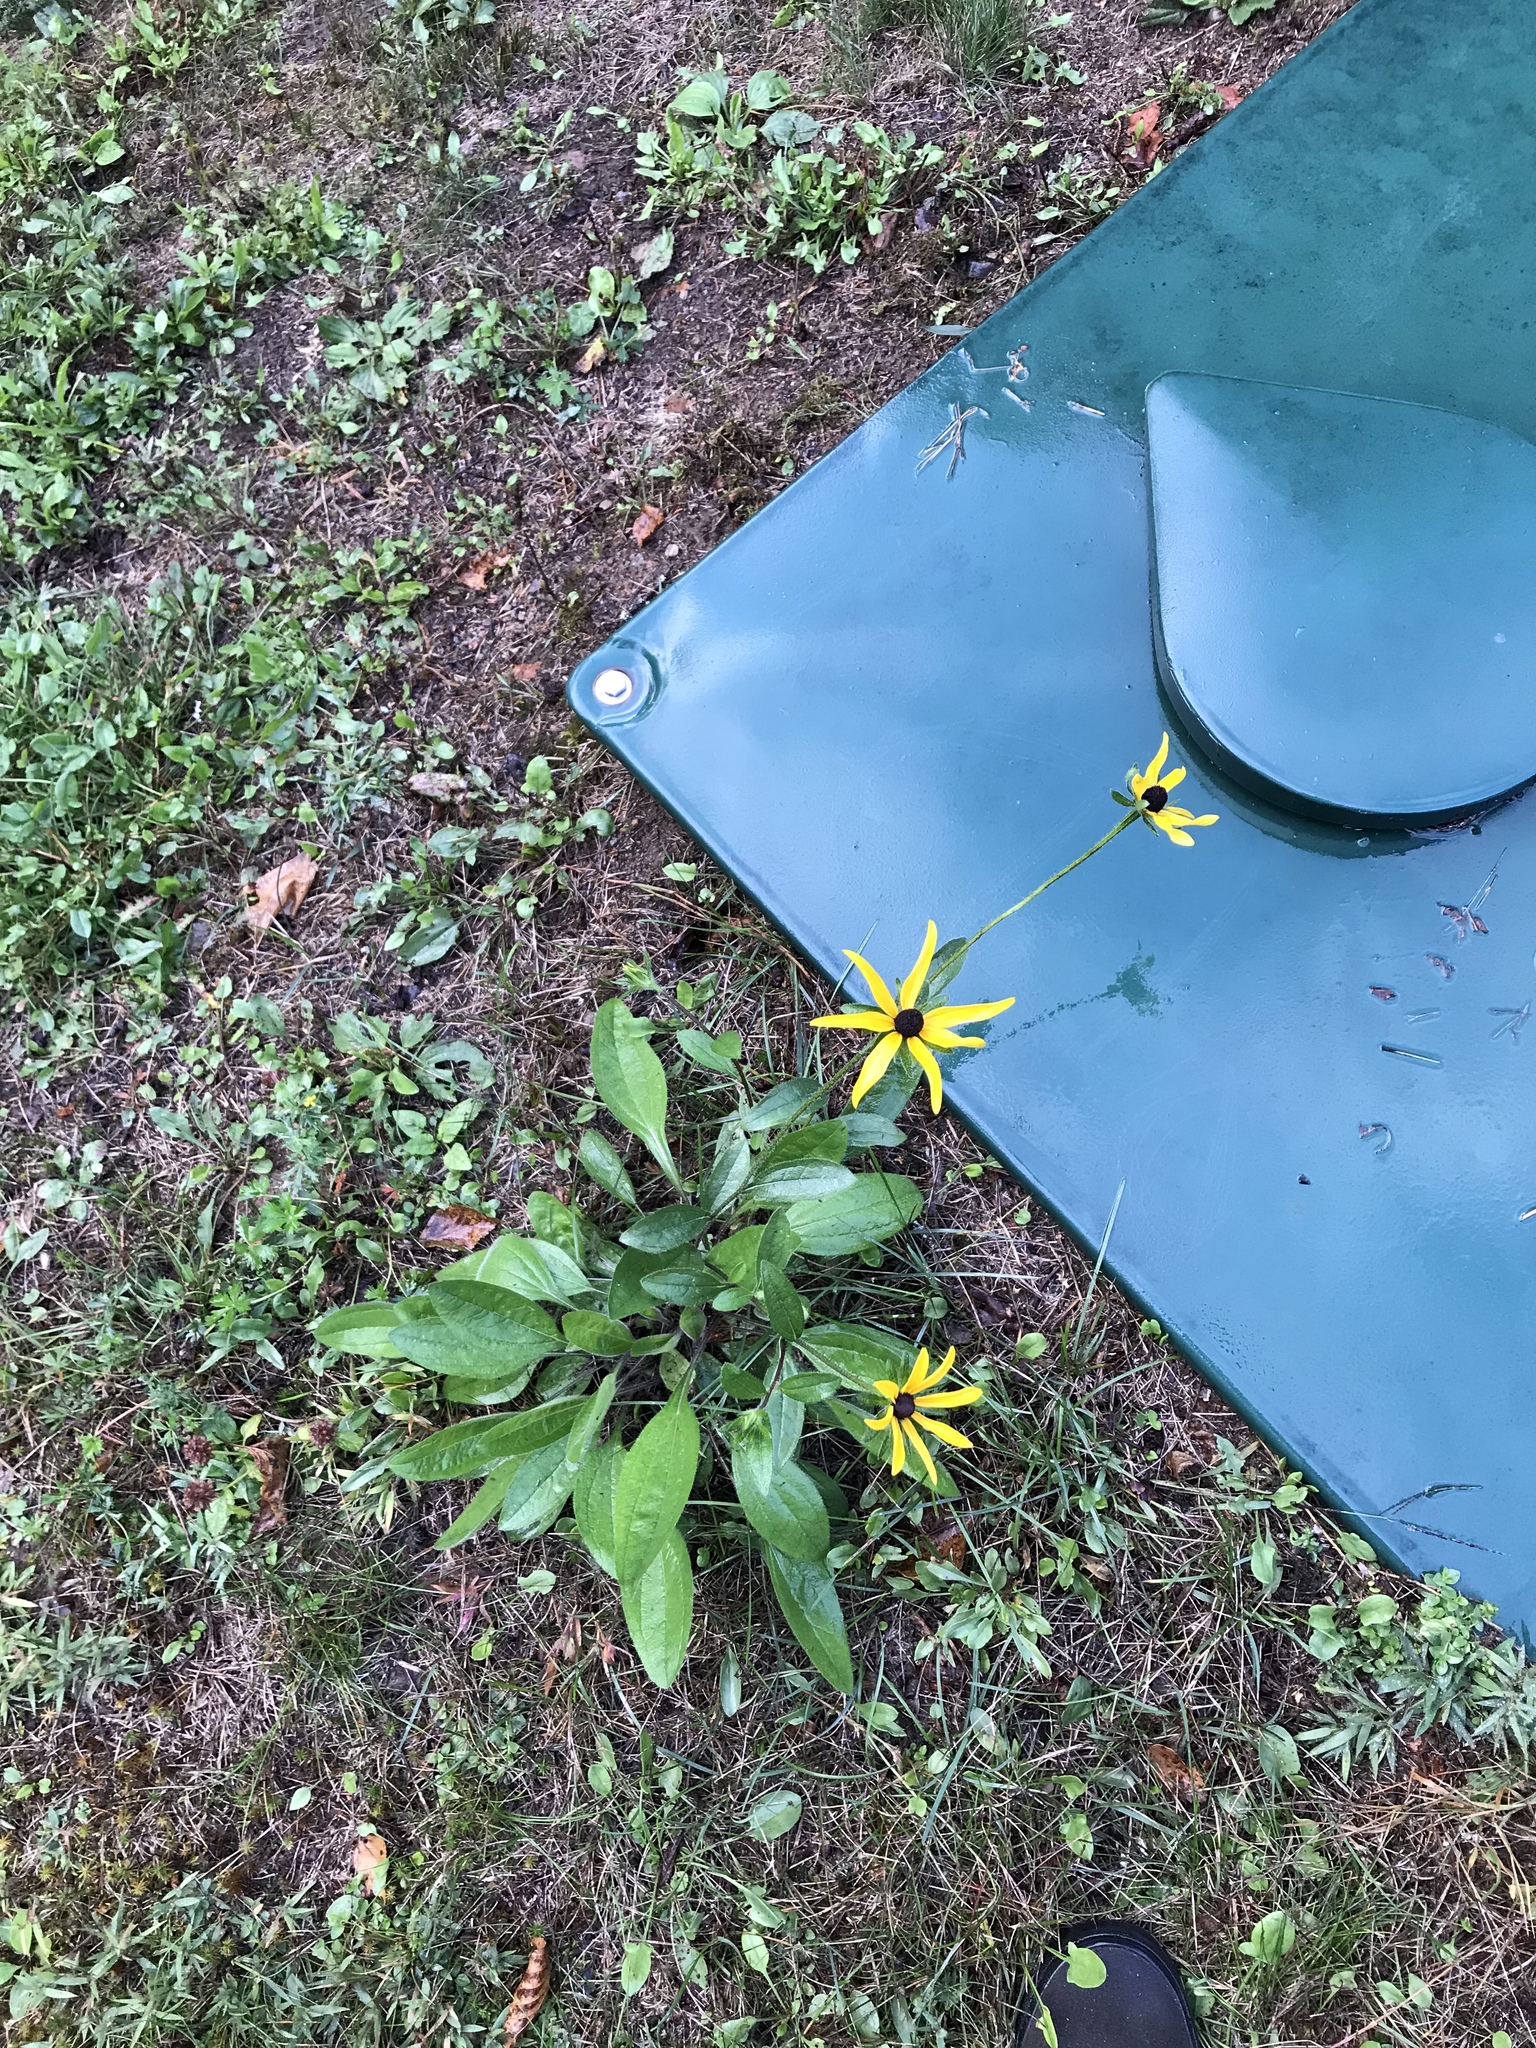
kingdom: Plantae
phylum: Tracheophyta
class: Magnoliopsida
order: Asterales
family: Asteraceae
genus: Rudbeckia
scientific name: Rudbeckia hirta
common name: Black-eyed-susan
